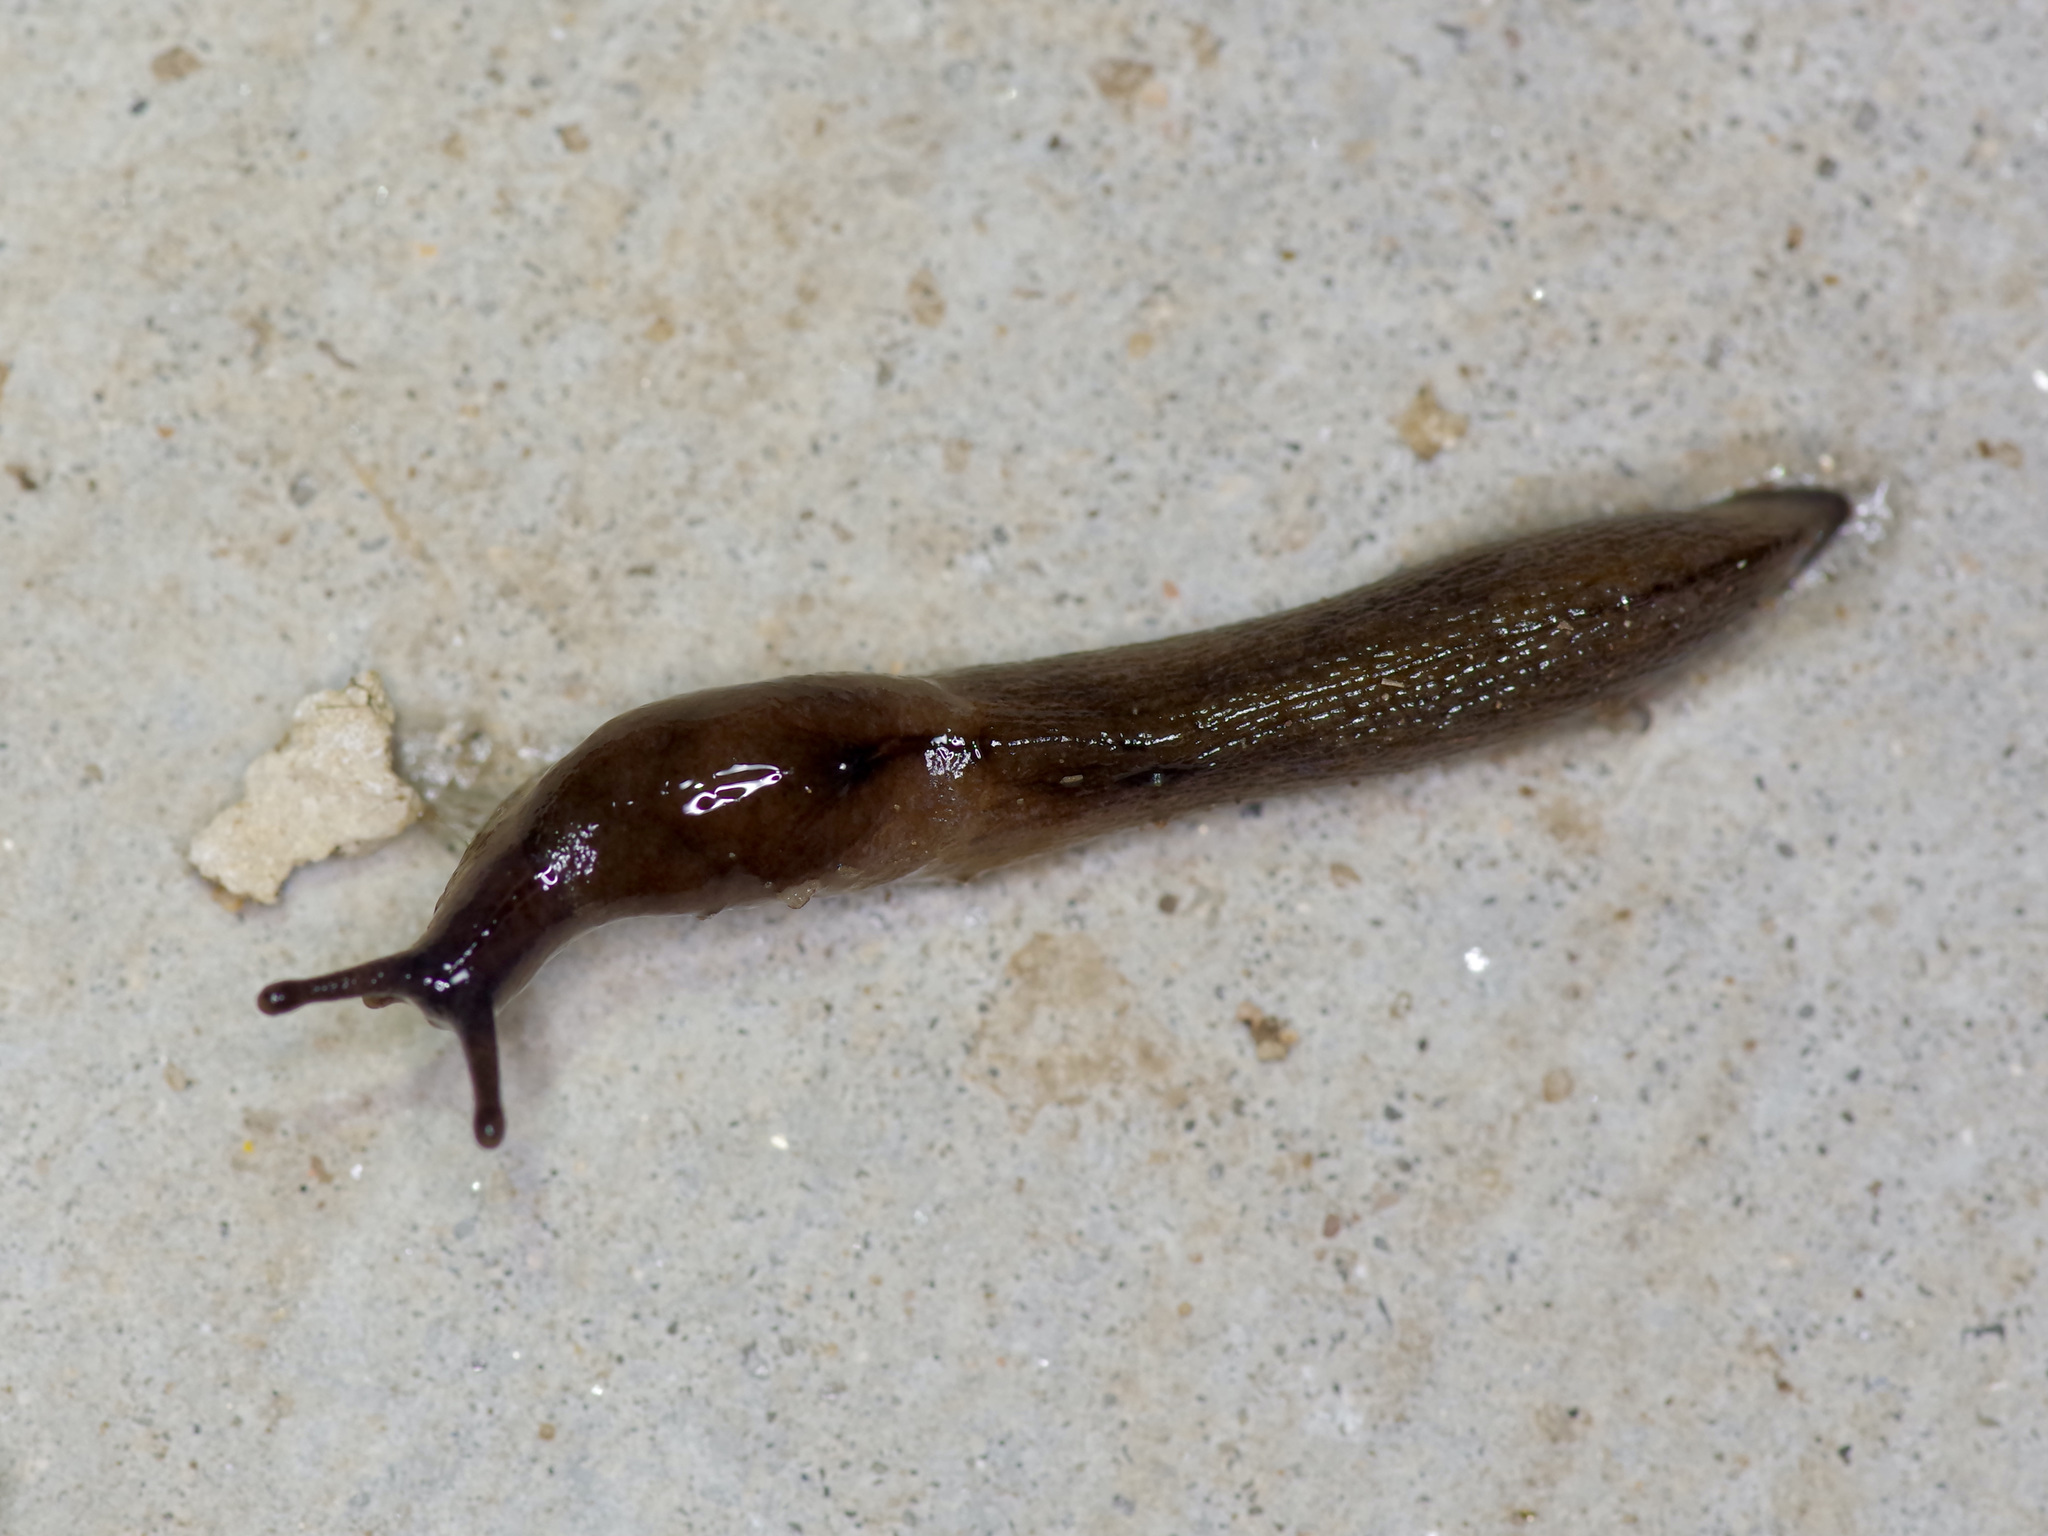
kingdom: Animalia
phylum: Mollusca
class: Gastropoda
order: Stylommatophora
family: Milacidae
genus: Milax
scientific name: Milax gagates
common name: Greenhouse slug
